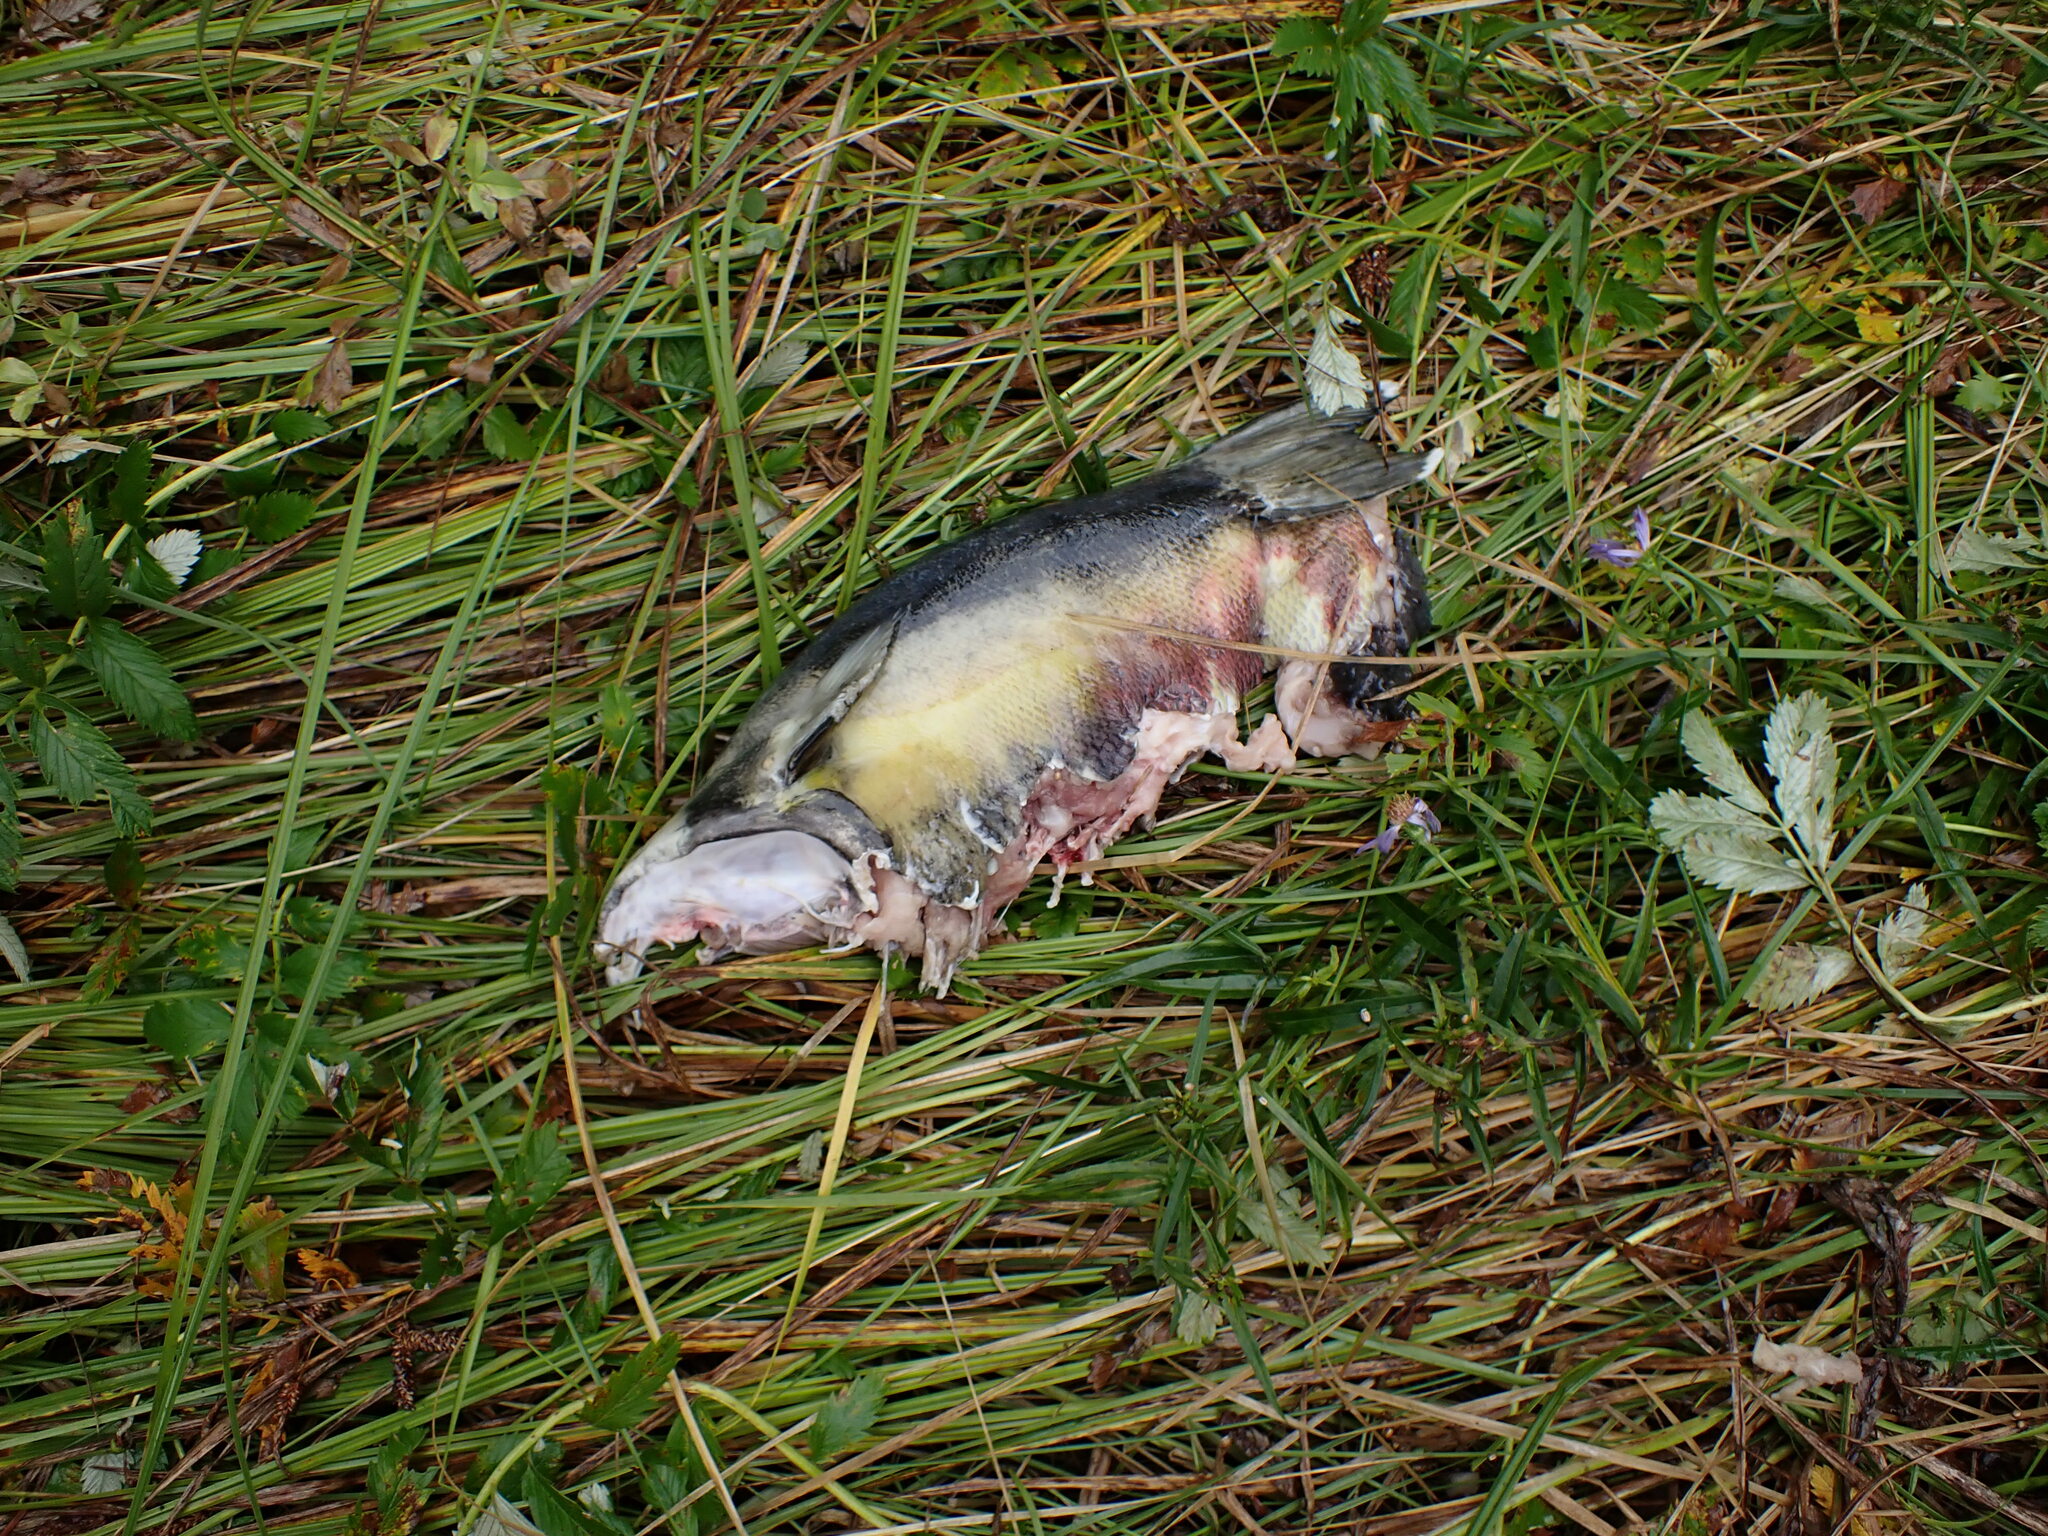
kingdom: Animalia
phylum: Chordata
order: Salmoniformes
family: Salmonidae
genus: Oncorhynchus
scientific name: Oncorhynchus keta
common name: Chum salmon
